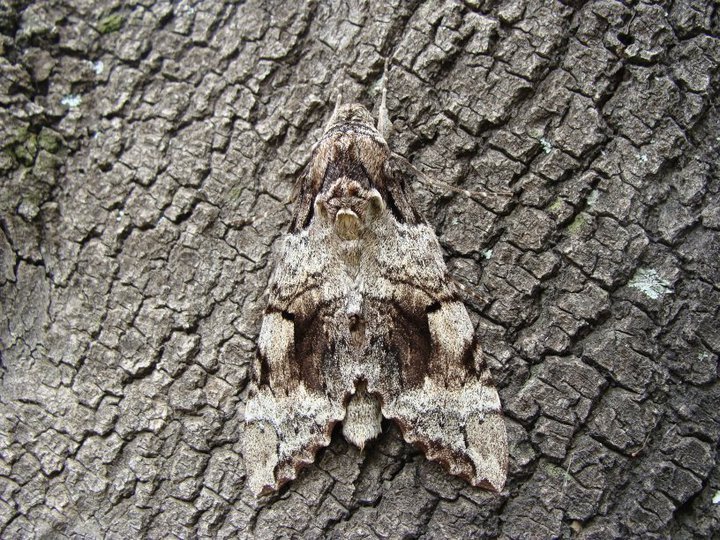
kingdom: Animalia
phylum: Arthropoda
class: Insecta
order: Lepidoptera
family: Sphingidae
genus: Pseudosphinx
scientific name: Pseudosphinx tetrio
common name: Tetrio sphinx
